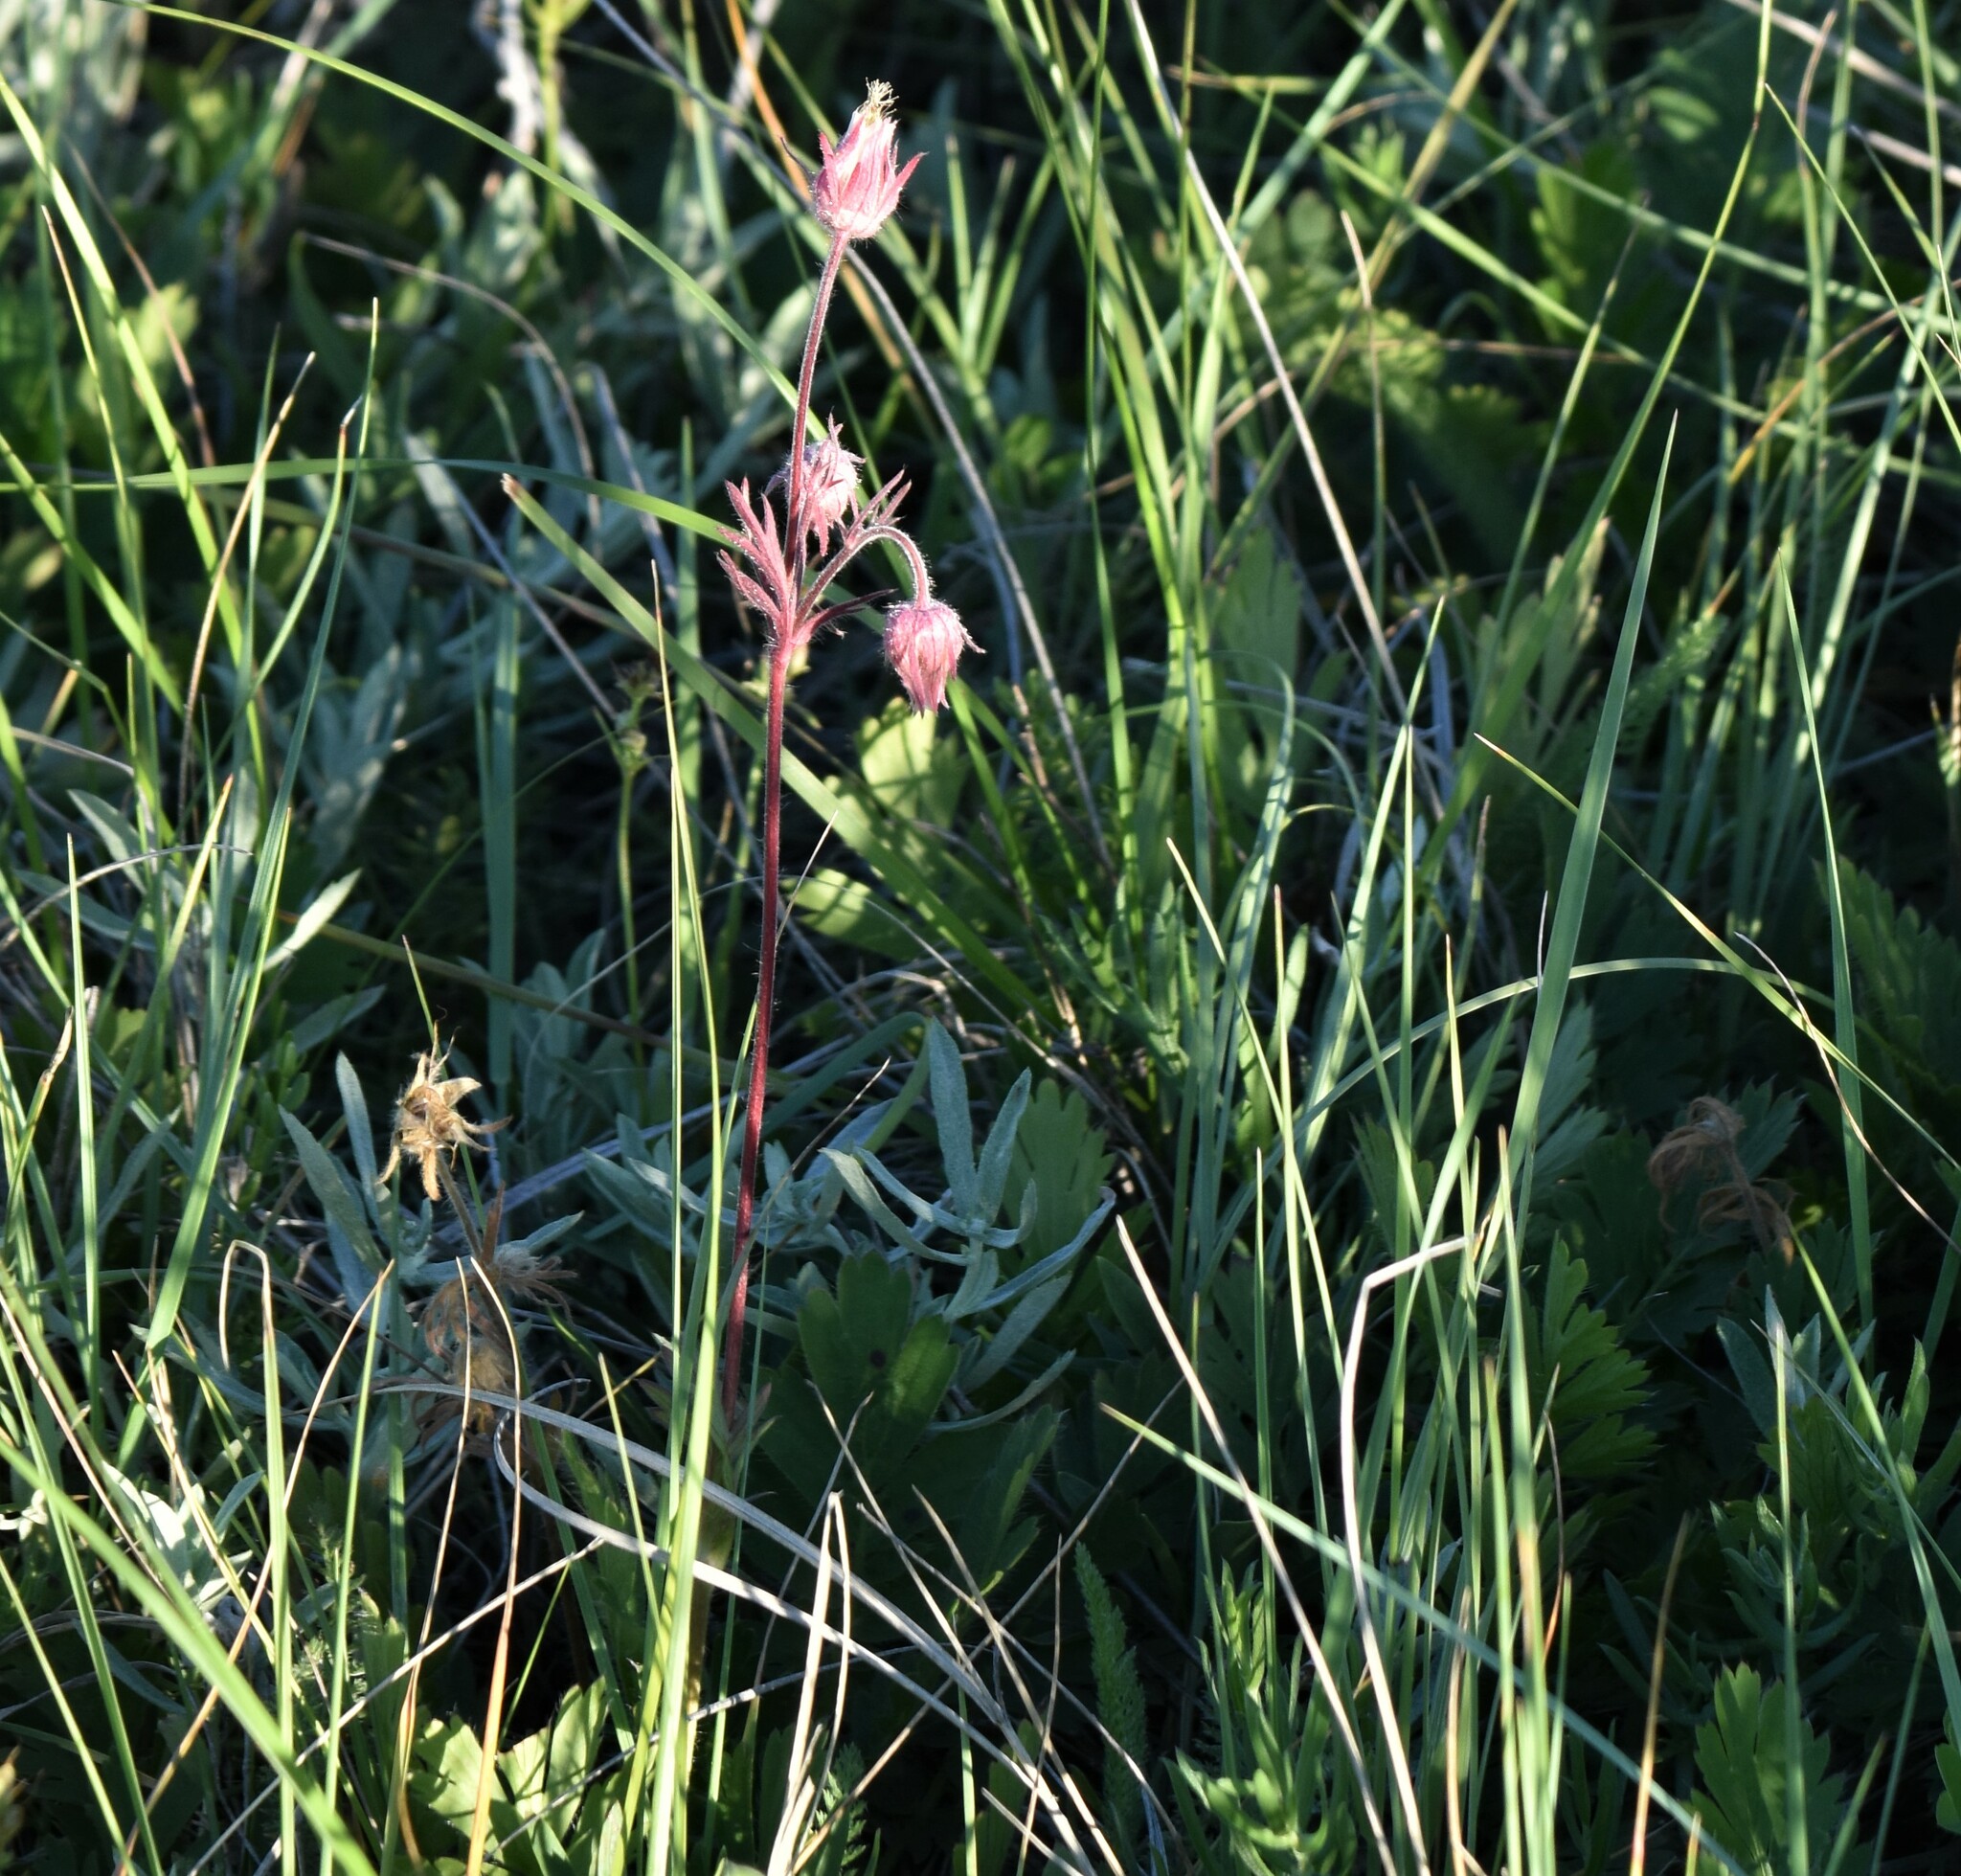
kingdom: Plantae
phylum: Tracheophyta
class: Magnoliopsida
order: Rosales
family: Rosaceae
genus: Geum
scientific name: Geum triflorum
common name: Old man's whiskers
